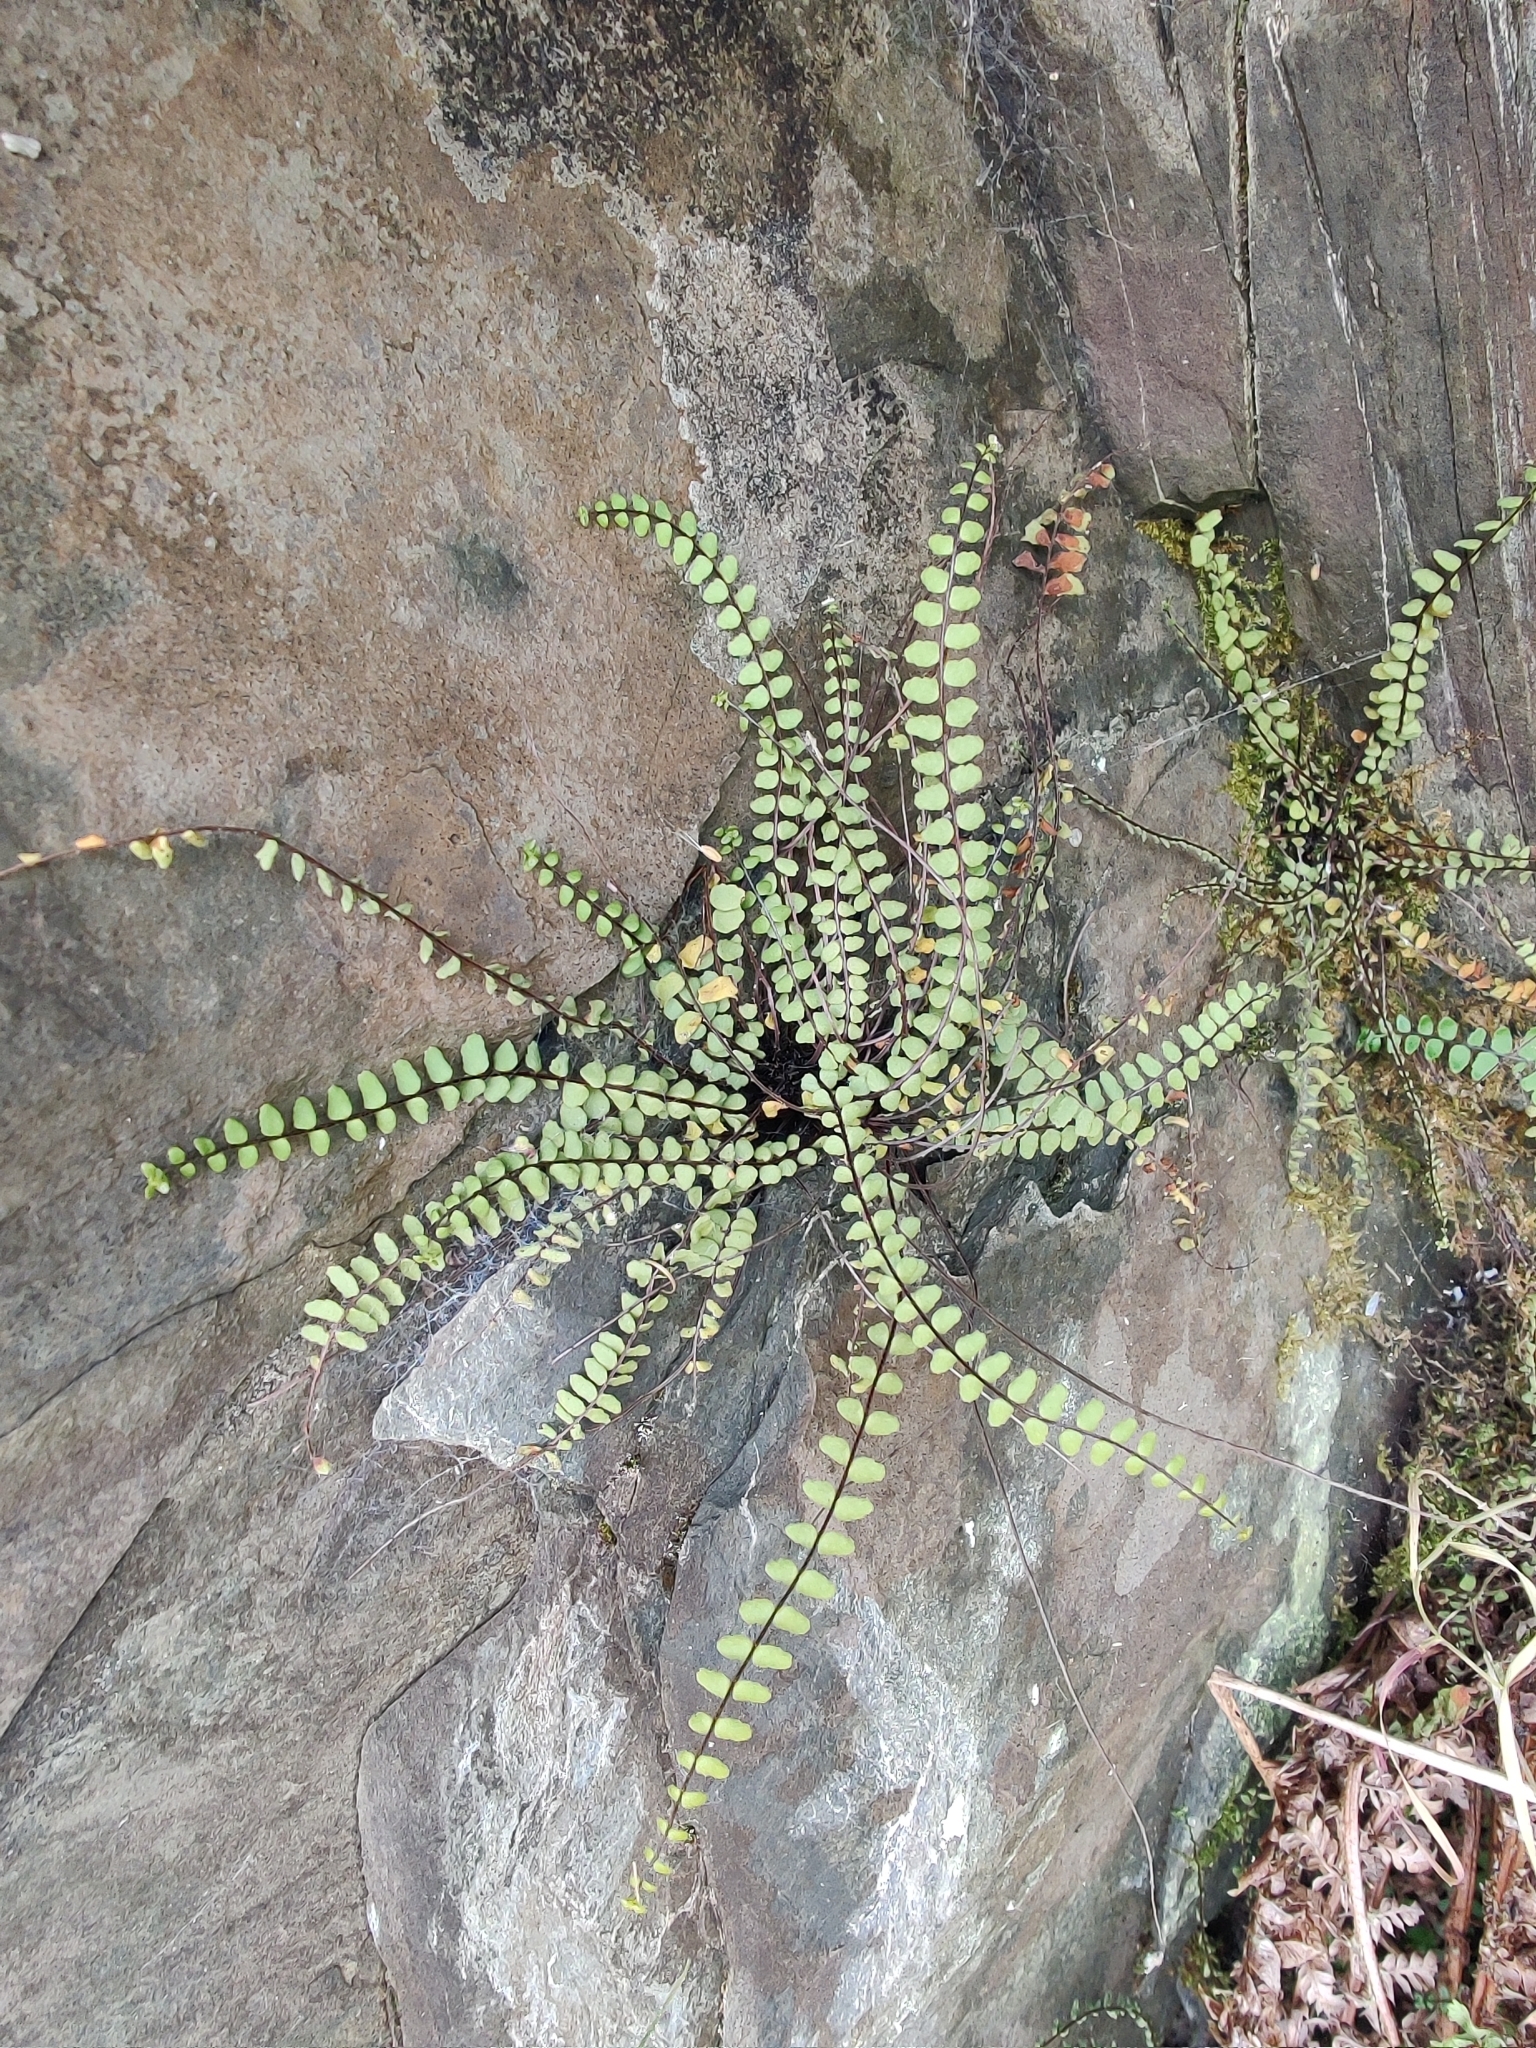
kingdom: Plantae
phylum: Tracheophyta
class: Polypodiopsida
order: Polypodiales
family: Aspleniaceae
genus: Asplenium
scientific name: Asplenium trichomanes
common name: Maidenhair spleenwort
